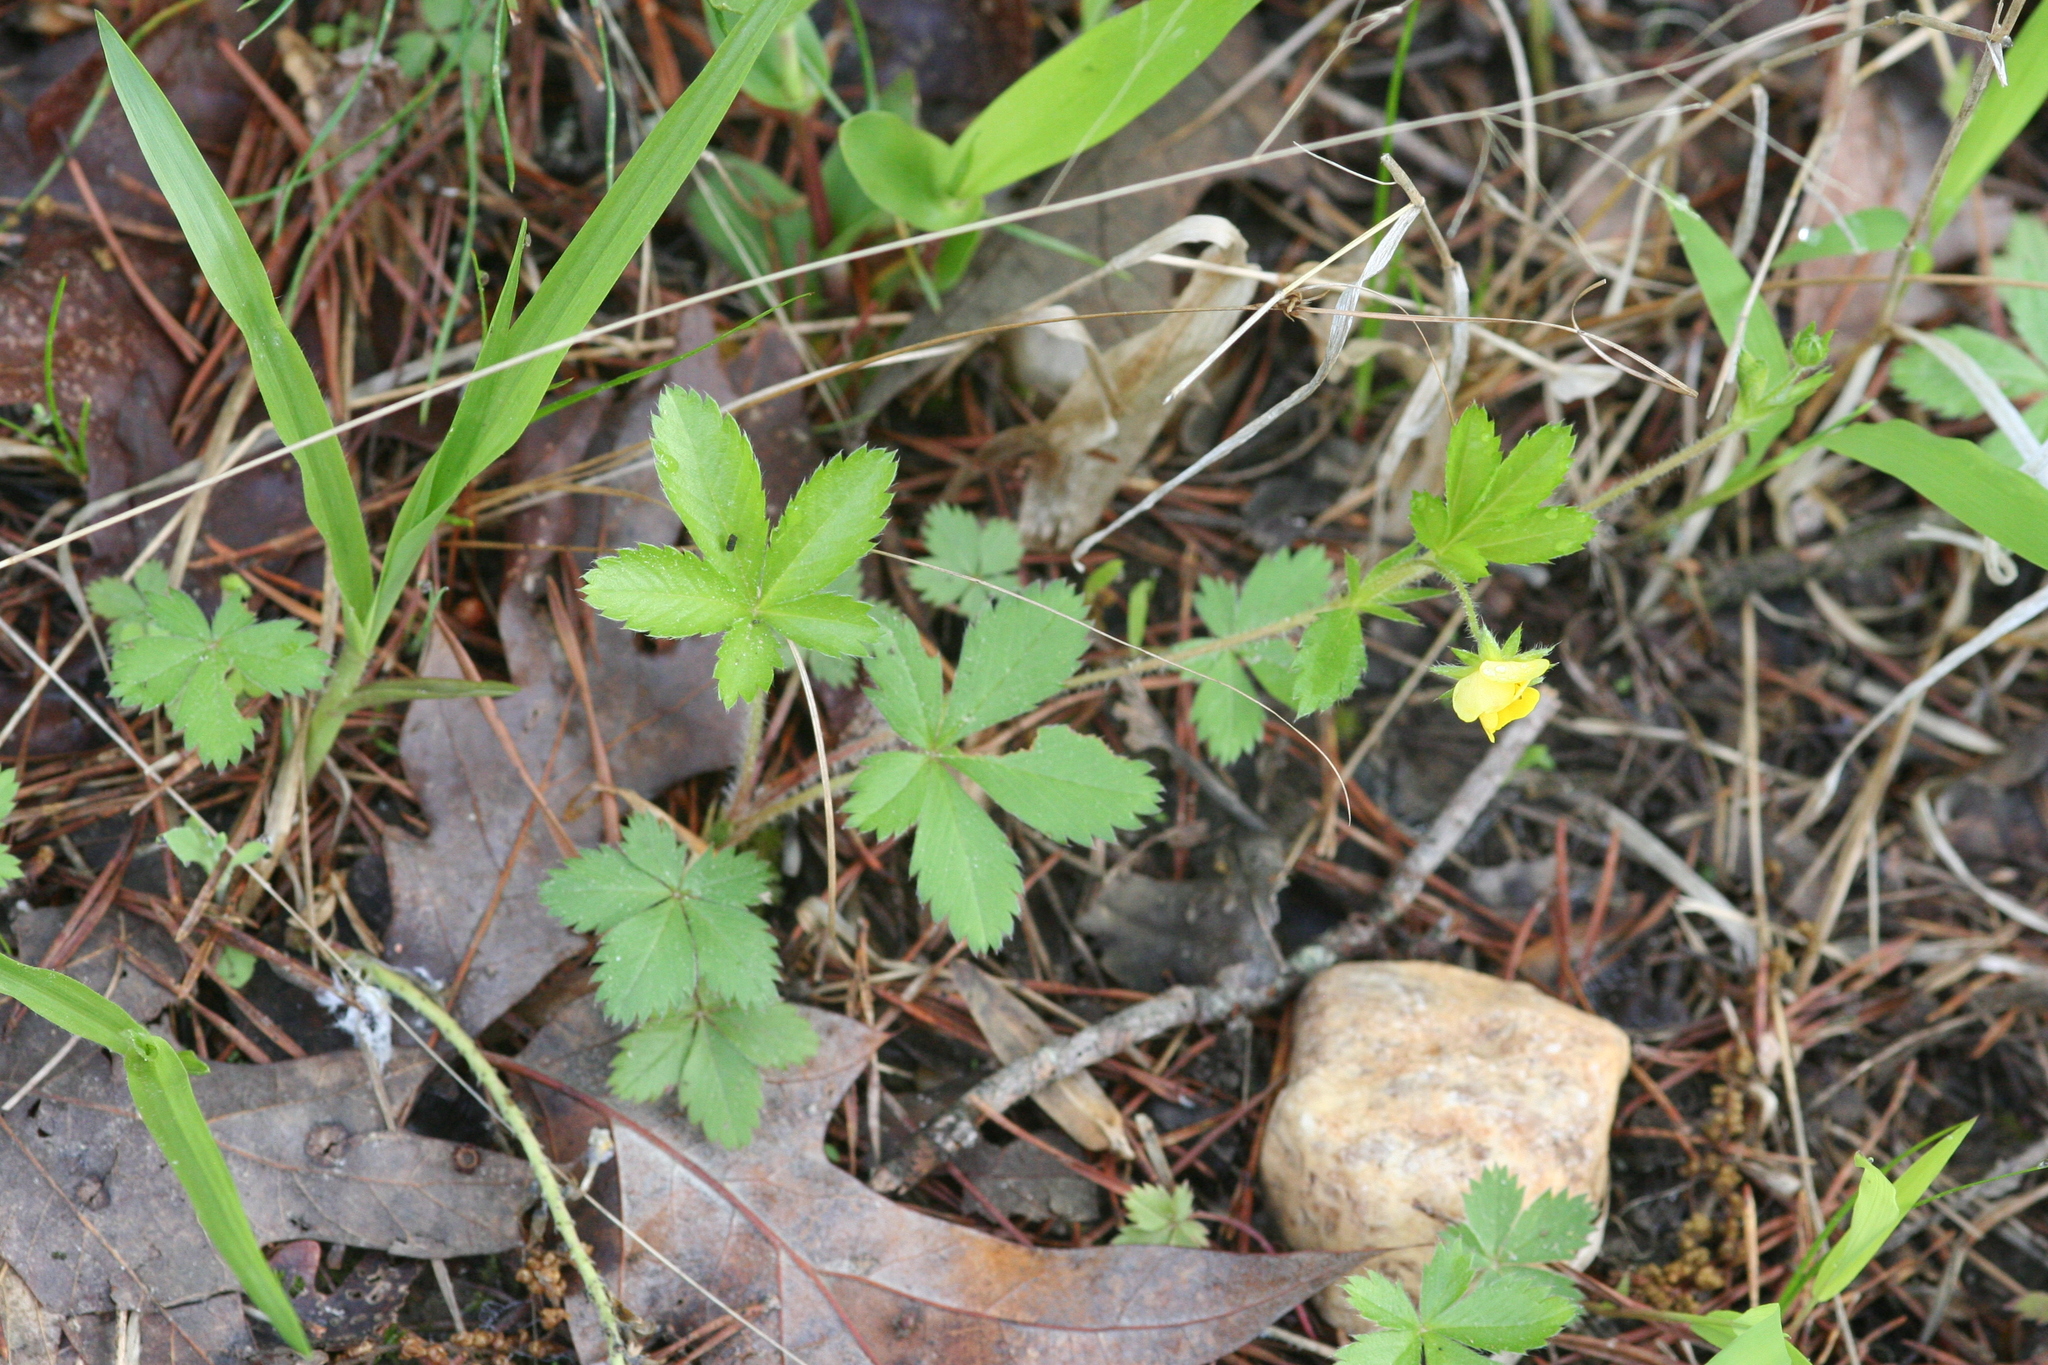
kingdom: Plantae
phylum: Tracheophyta
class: Magnoliopsida
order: Rosales
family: Rosaceae
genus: Potentilla
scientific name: Potentilla simplex
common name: Old field cinquefoil
